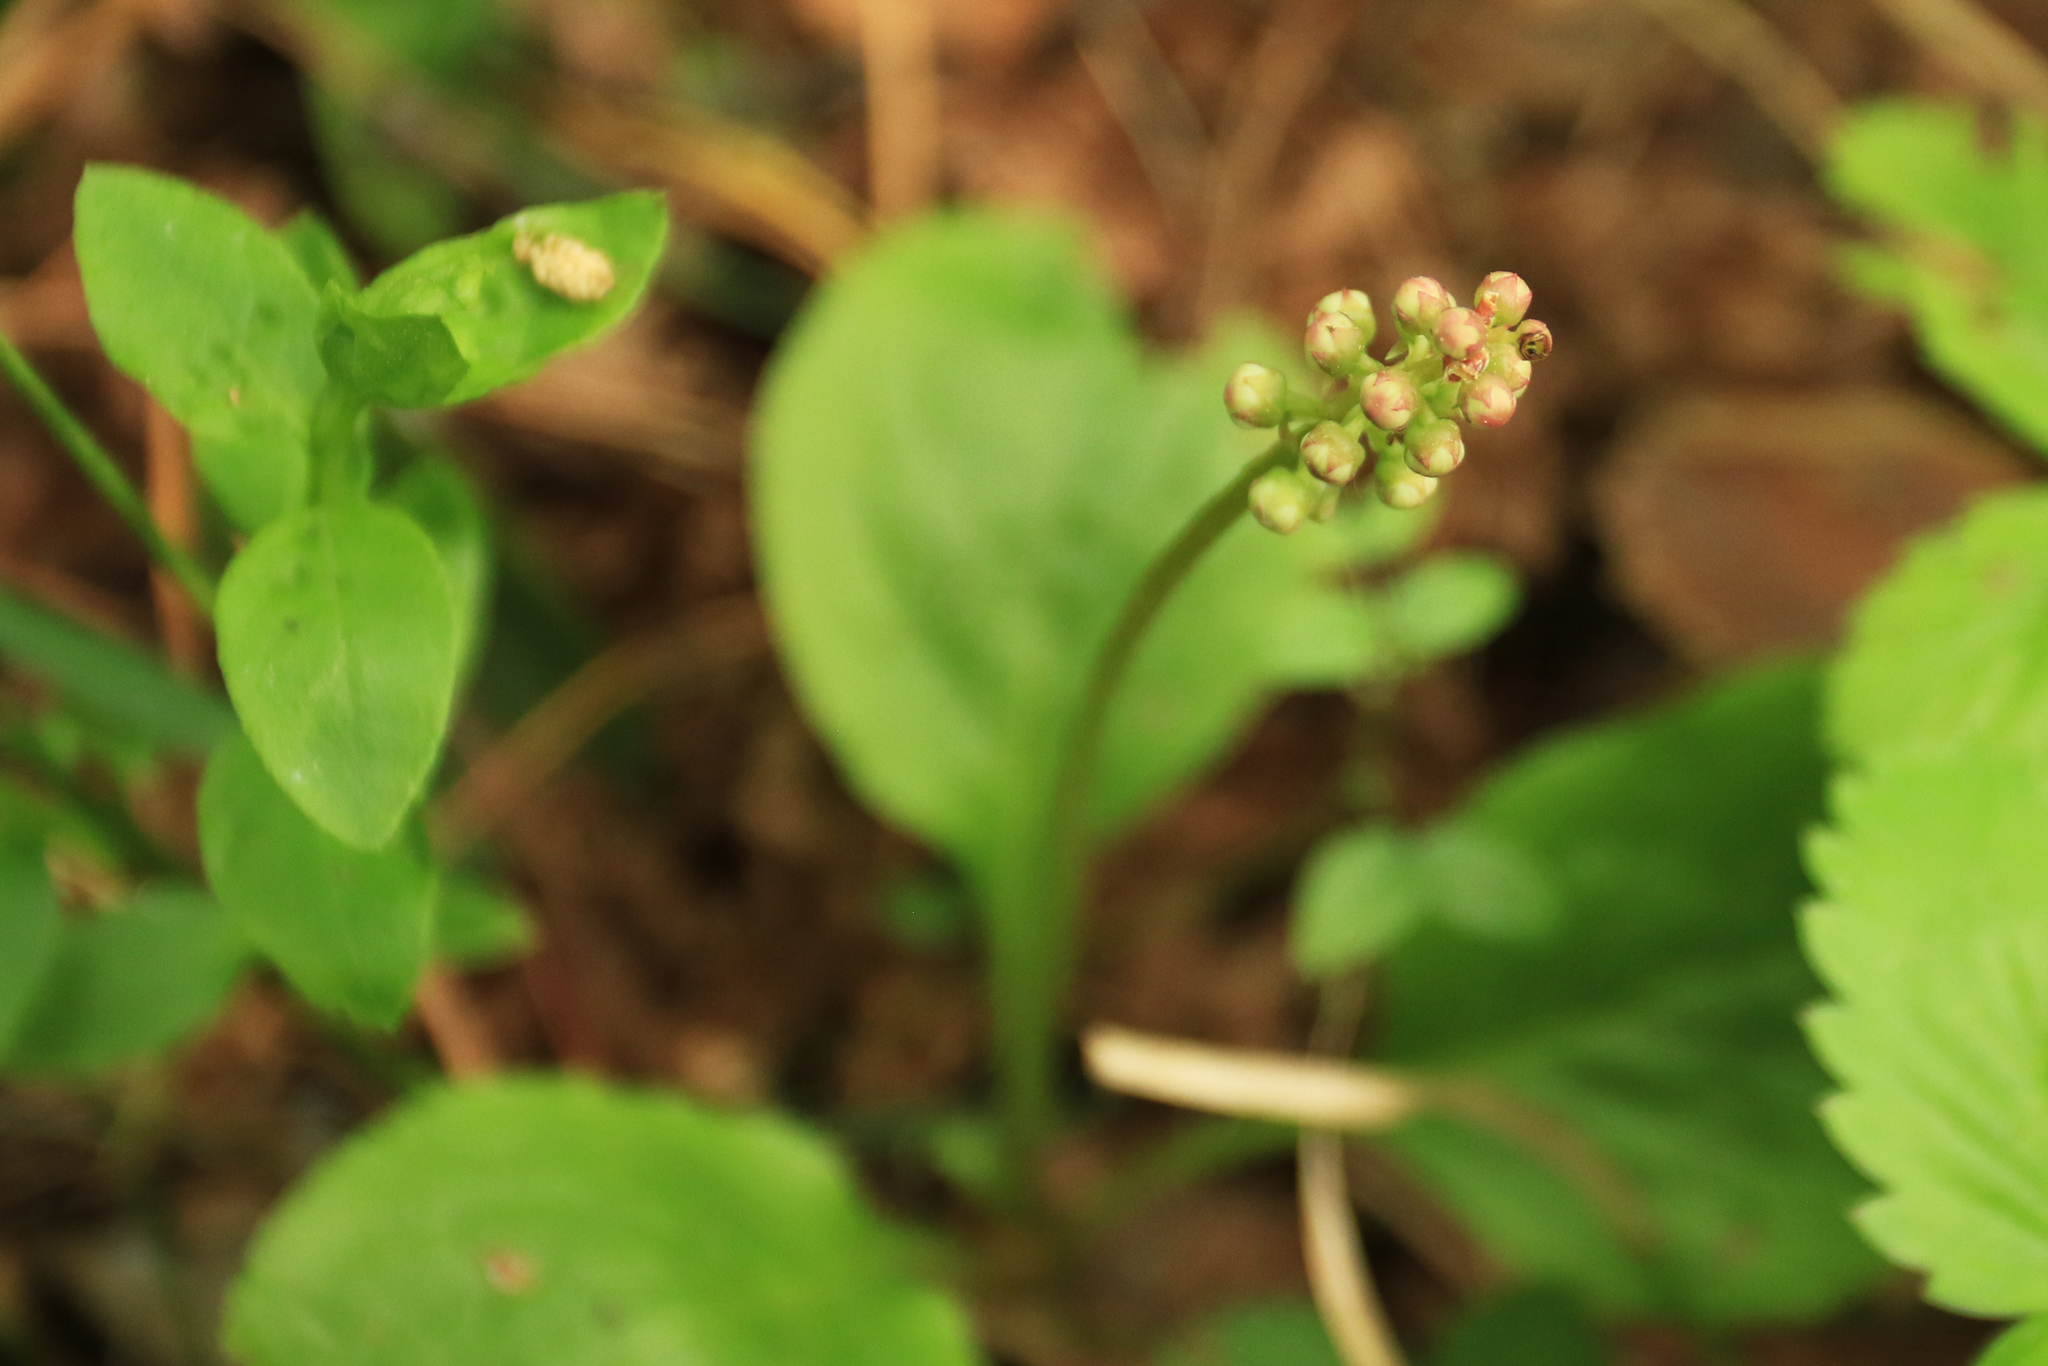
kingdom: Plantae
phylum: Tracheophyta
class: Magnoliopsida
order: Ericales
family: Ericaceae
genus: Pyrola
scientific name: Pyrola minor
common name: Common wintergreen
